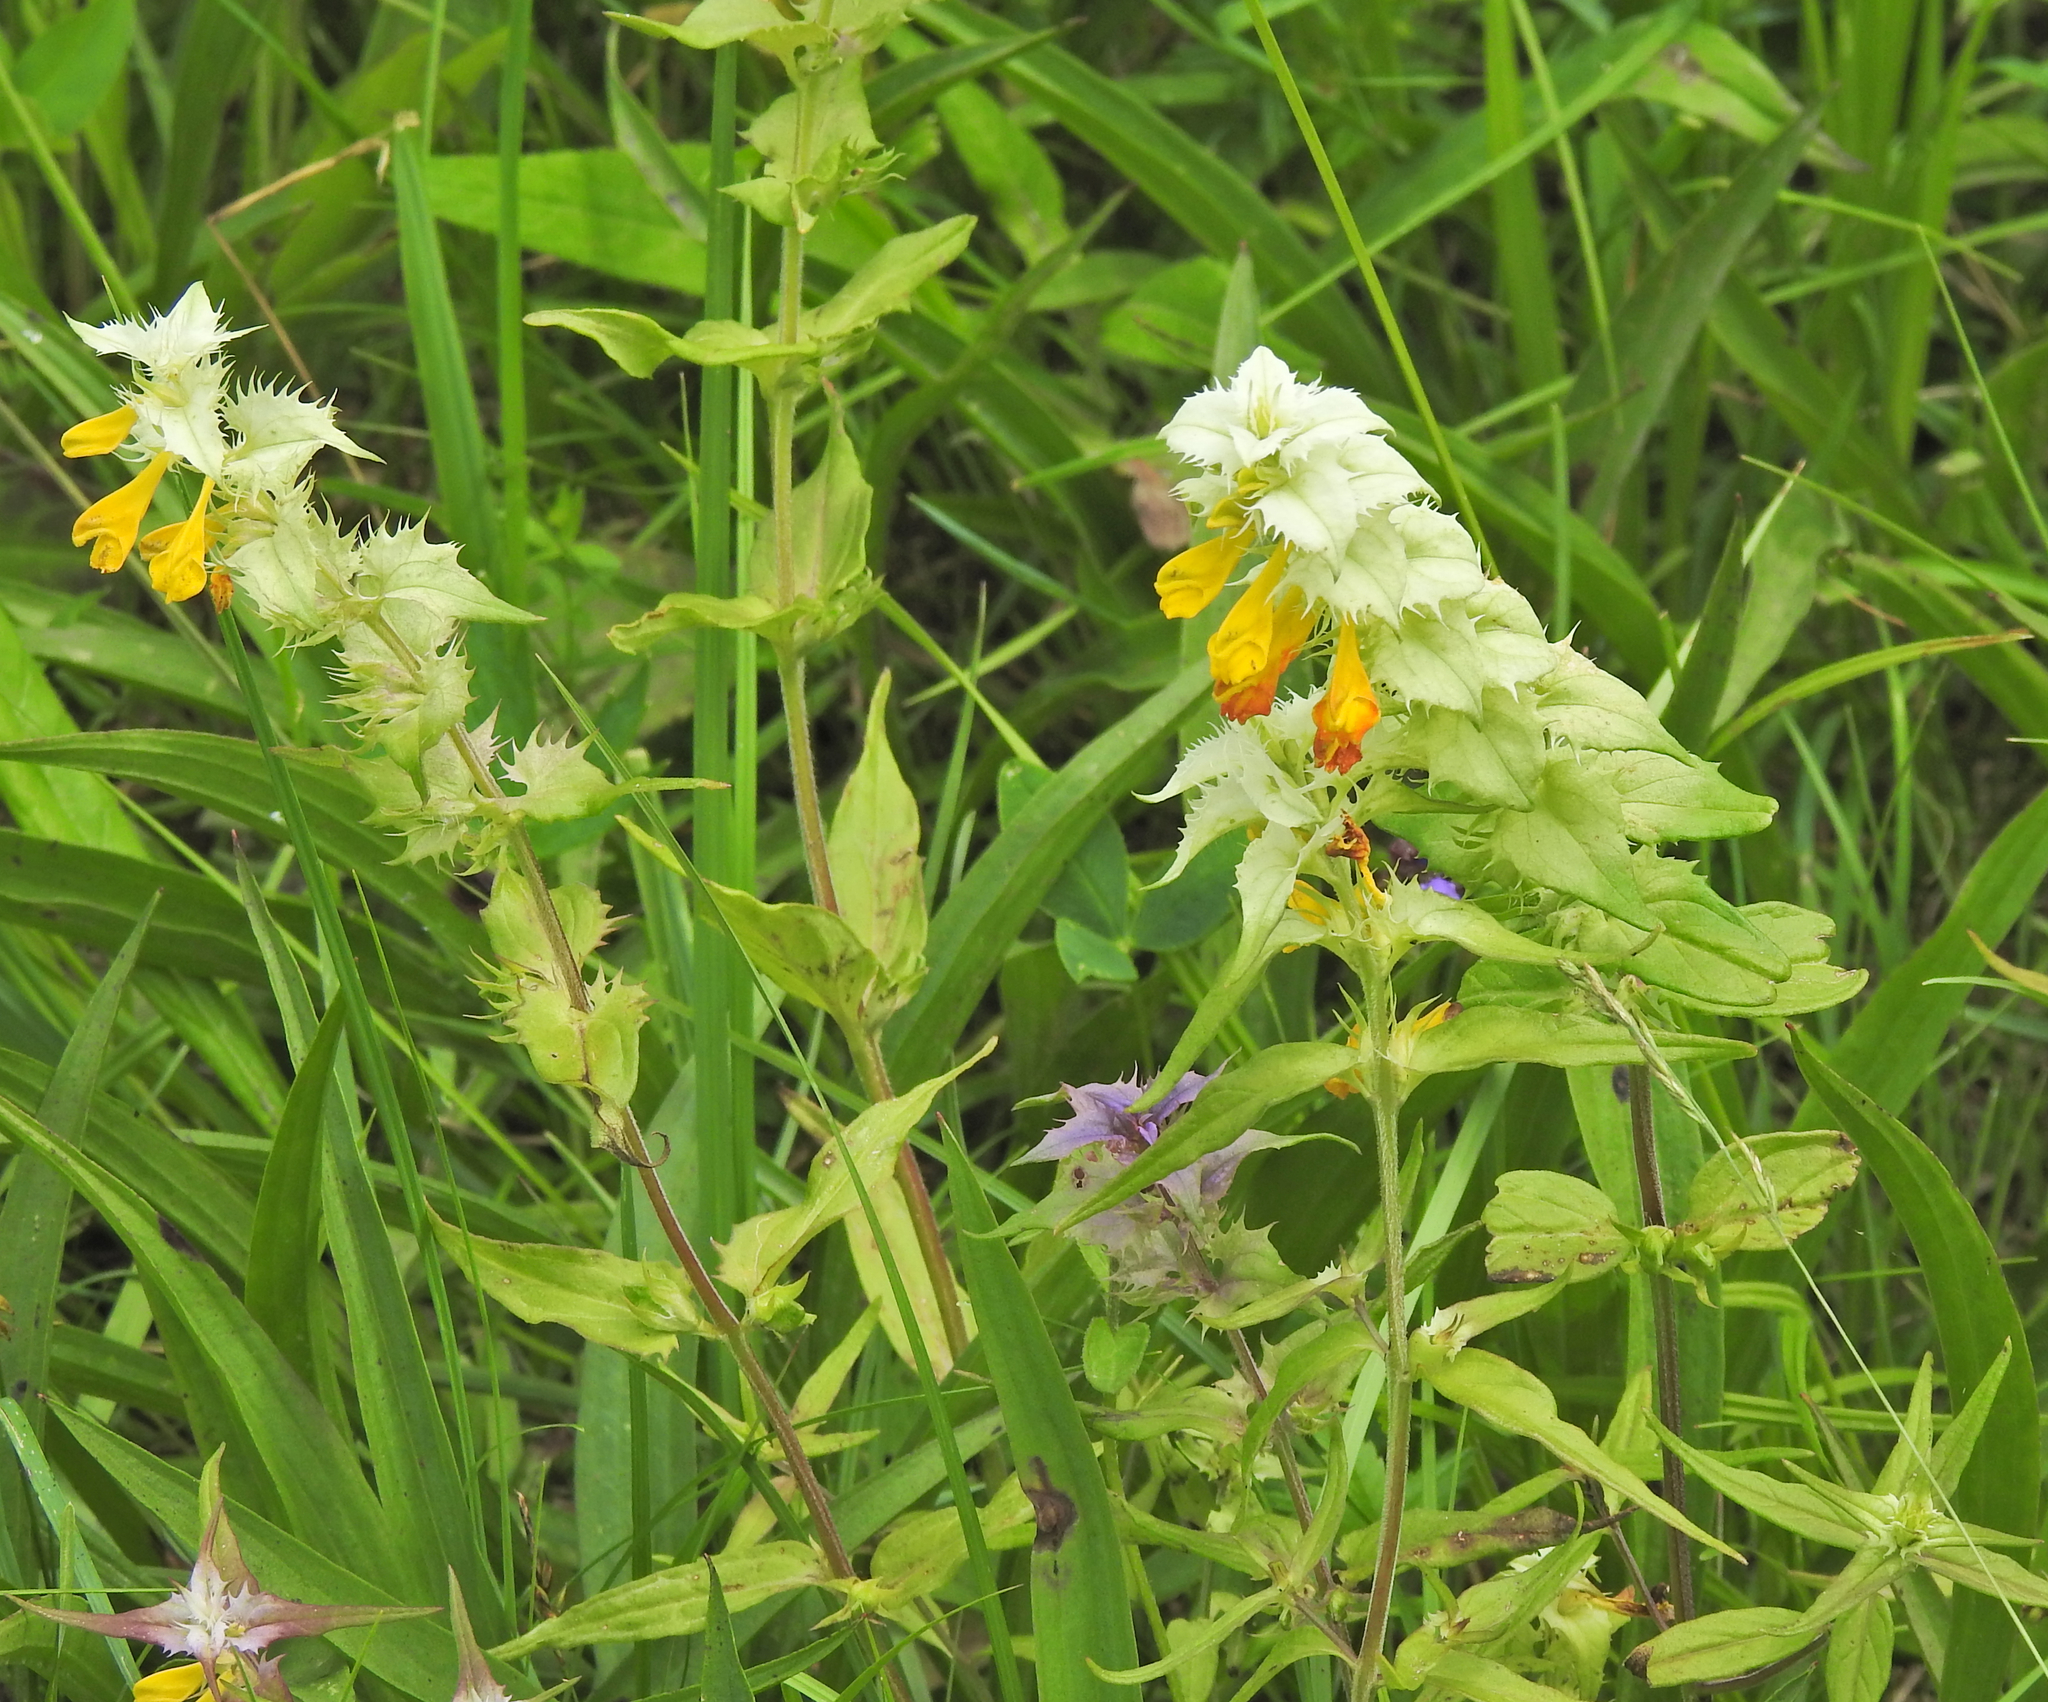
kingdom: Plantae
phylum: Tracheophyta
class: Magnoliopsida
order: Lamiales
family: Orobanchaceae
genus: Melampyrum
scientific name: Melampyrum nemorosum
